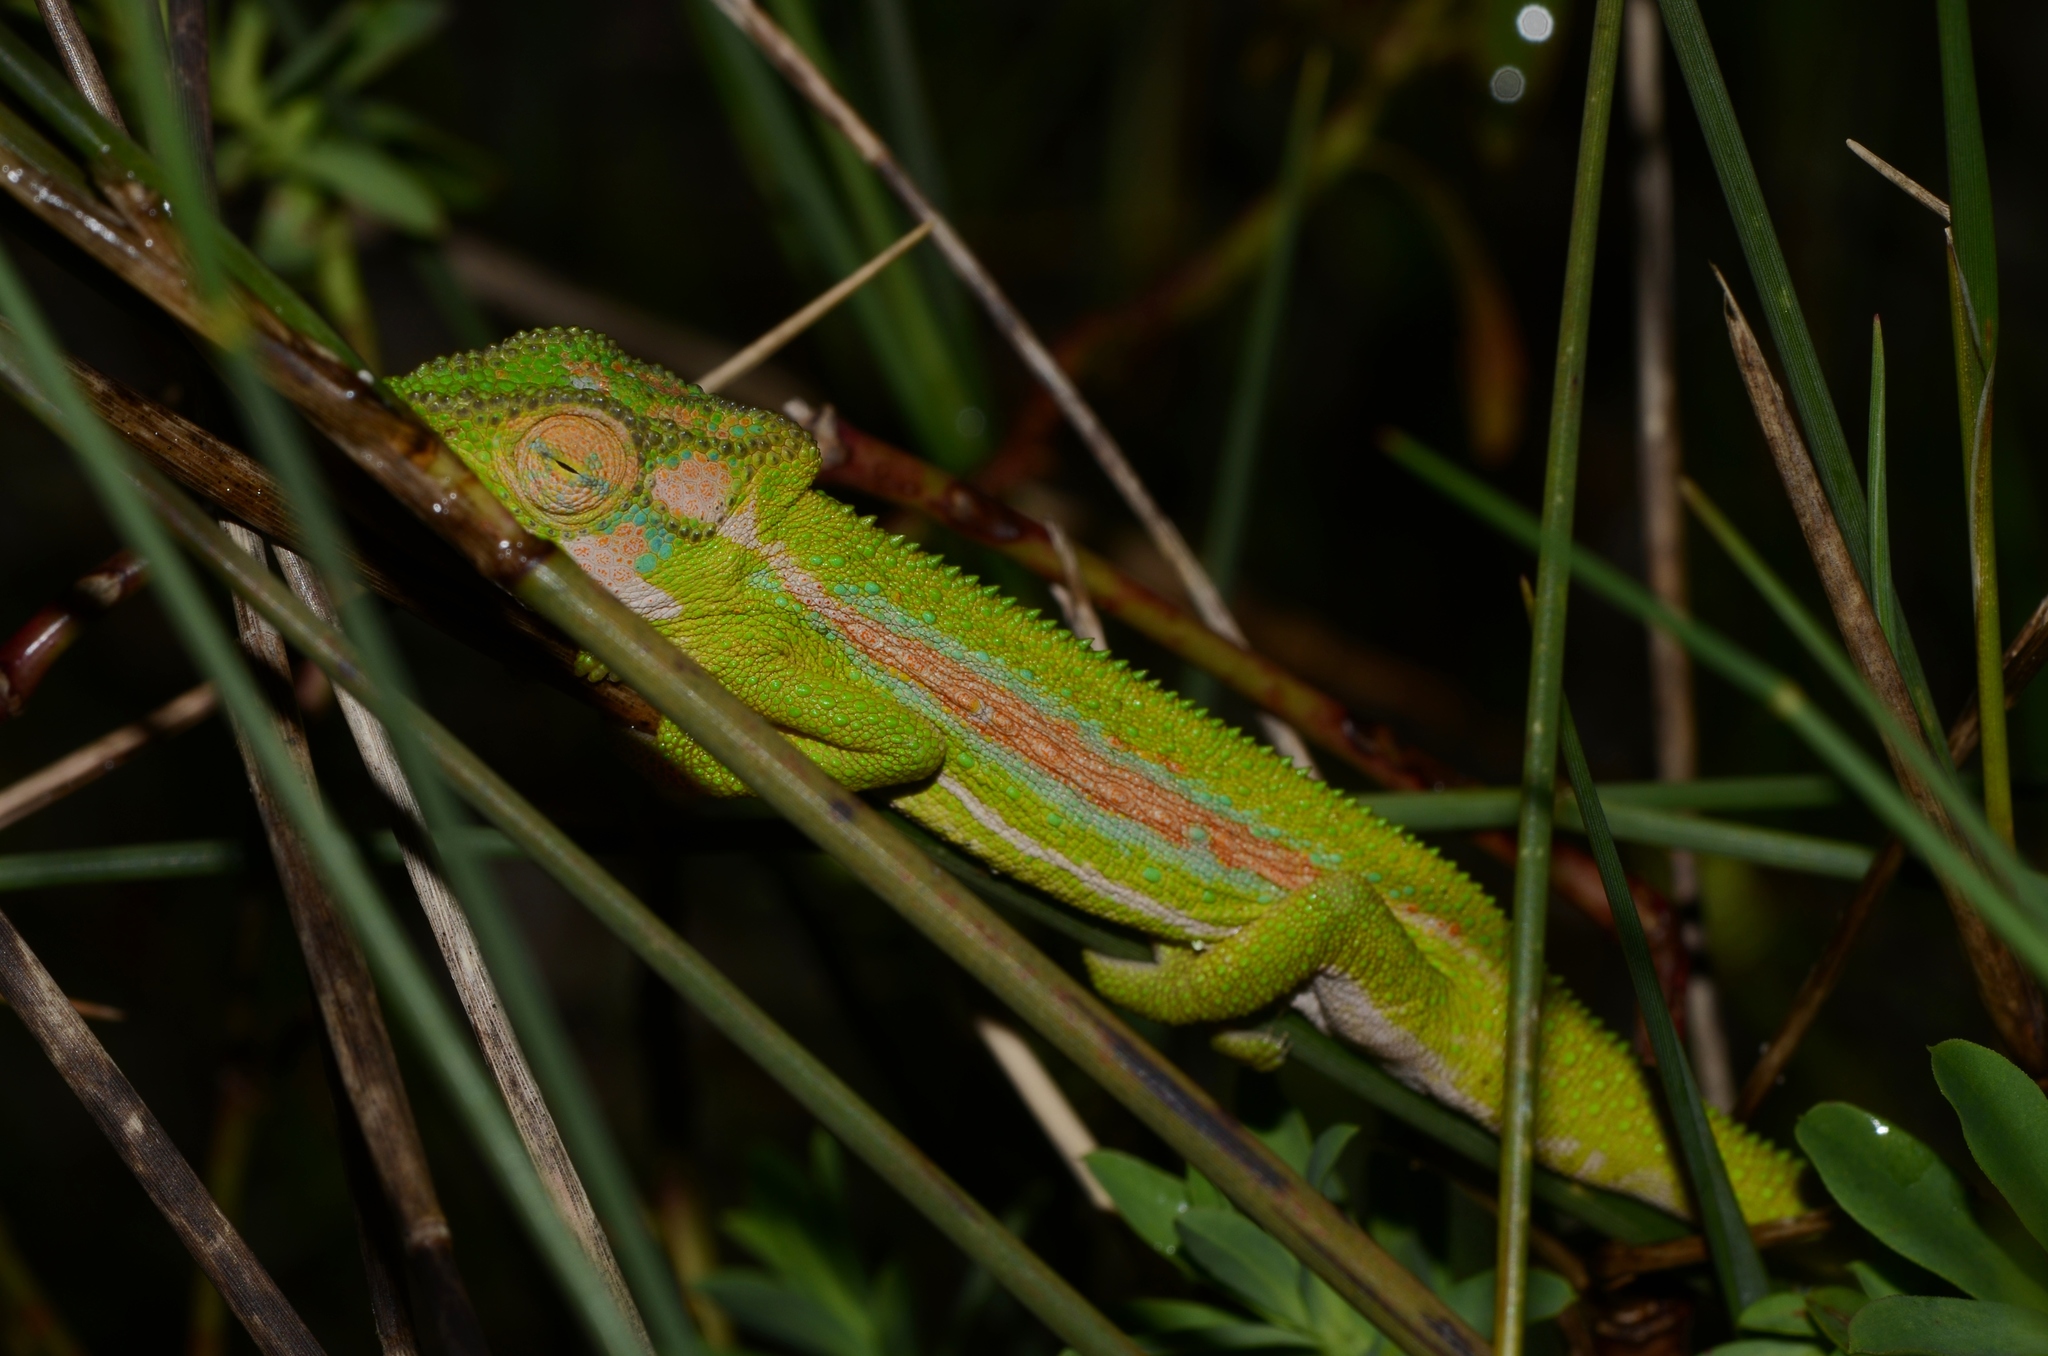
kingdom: Animalia
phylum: Chordata
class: Squamata
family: Chamaeleonidae
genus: Bradypodion
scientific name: Bradypodion pumilum
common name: Cape dwarf chameleon
